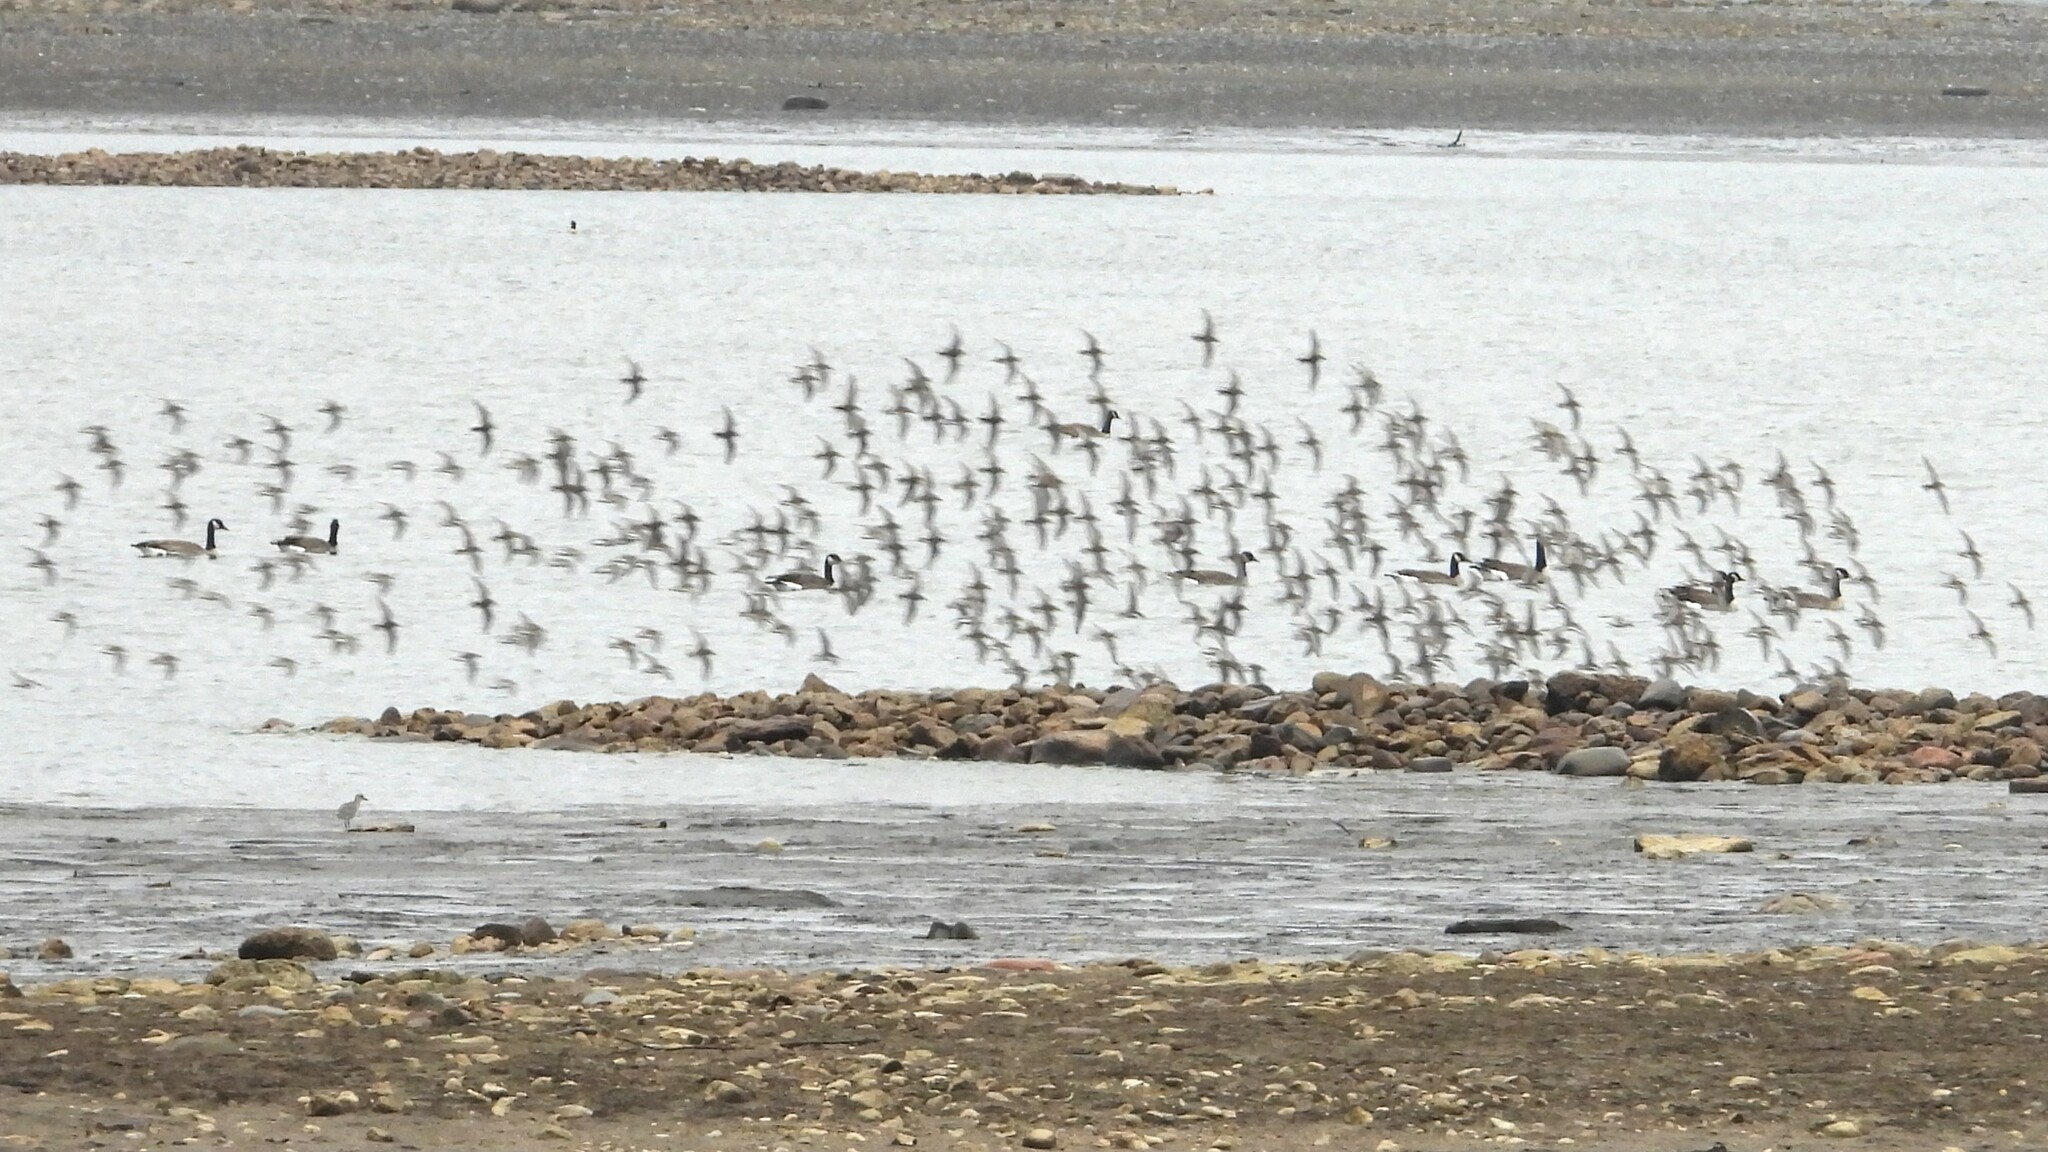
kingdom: Animalia
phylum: Chordata
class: Aves
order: Charadriiformes
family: Scolopacidae
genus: Calidris
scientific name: Calidris alpina
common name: Dunlin
